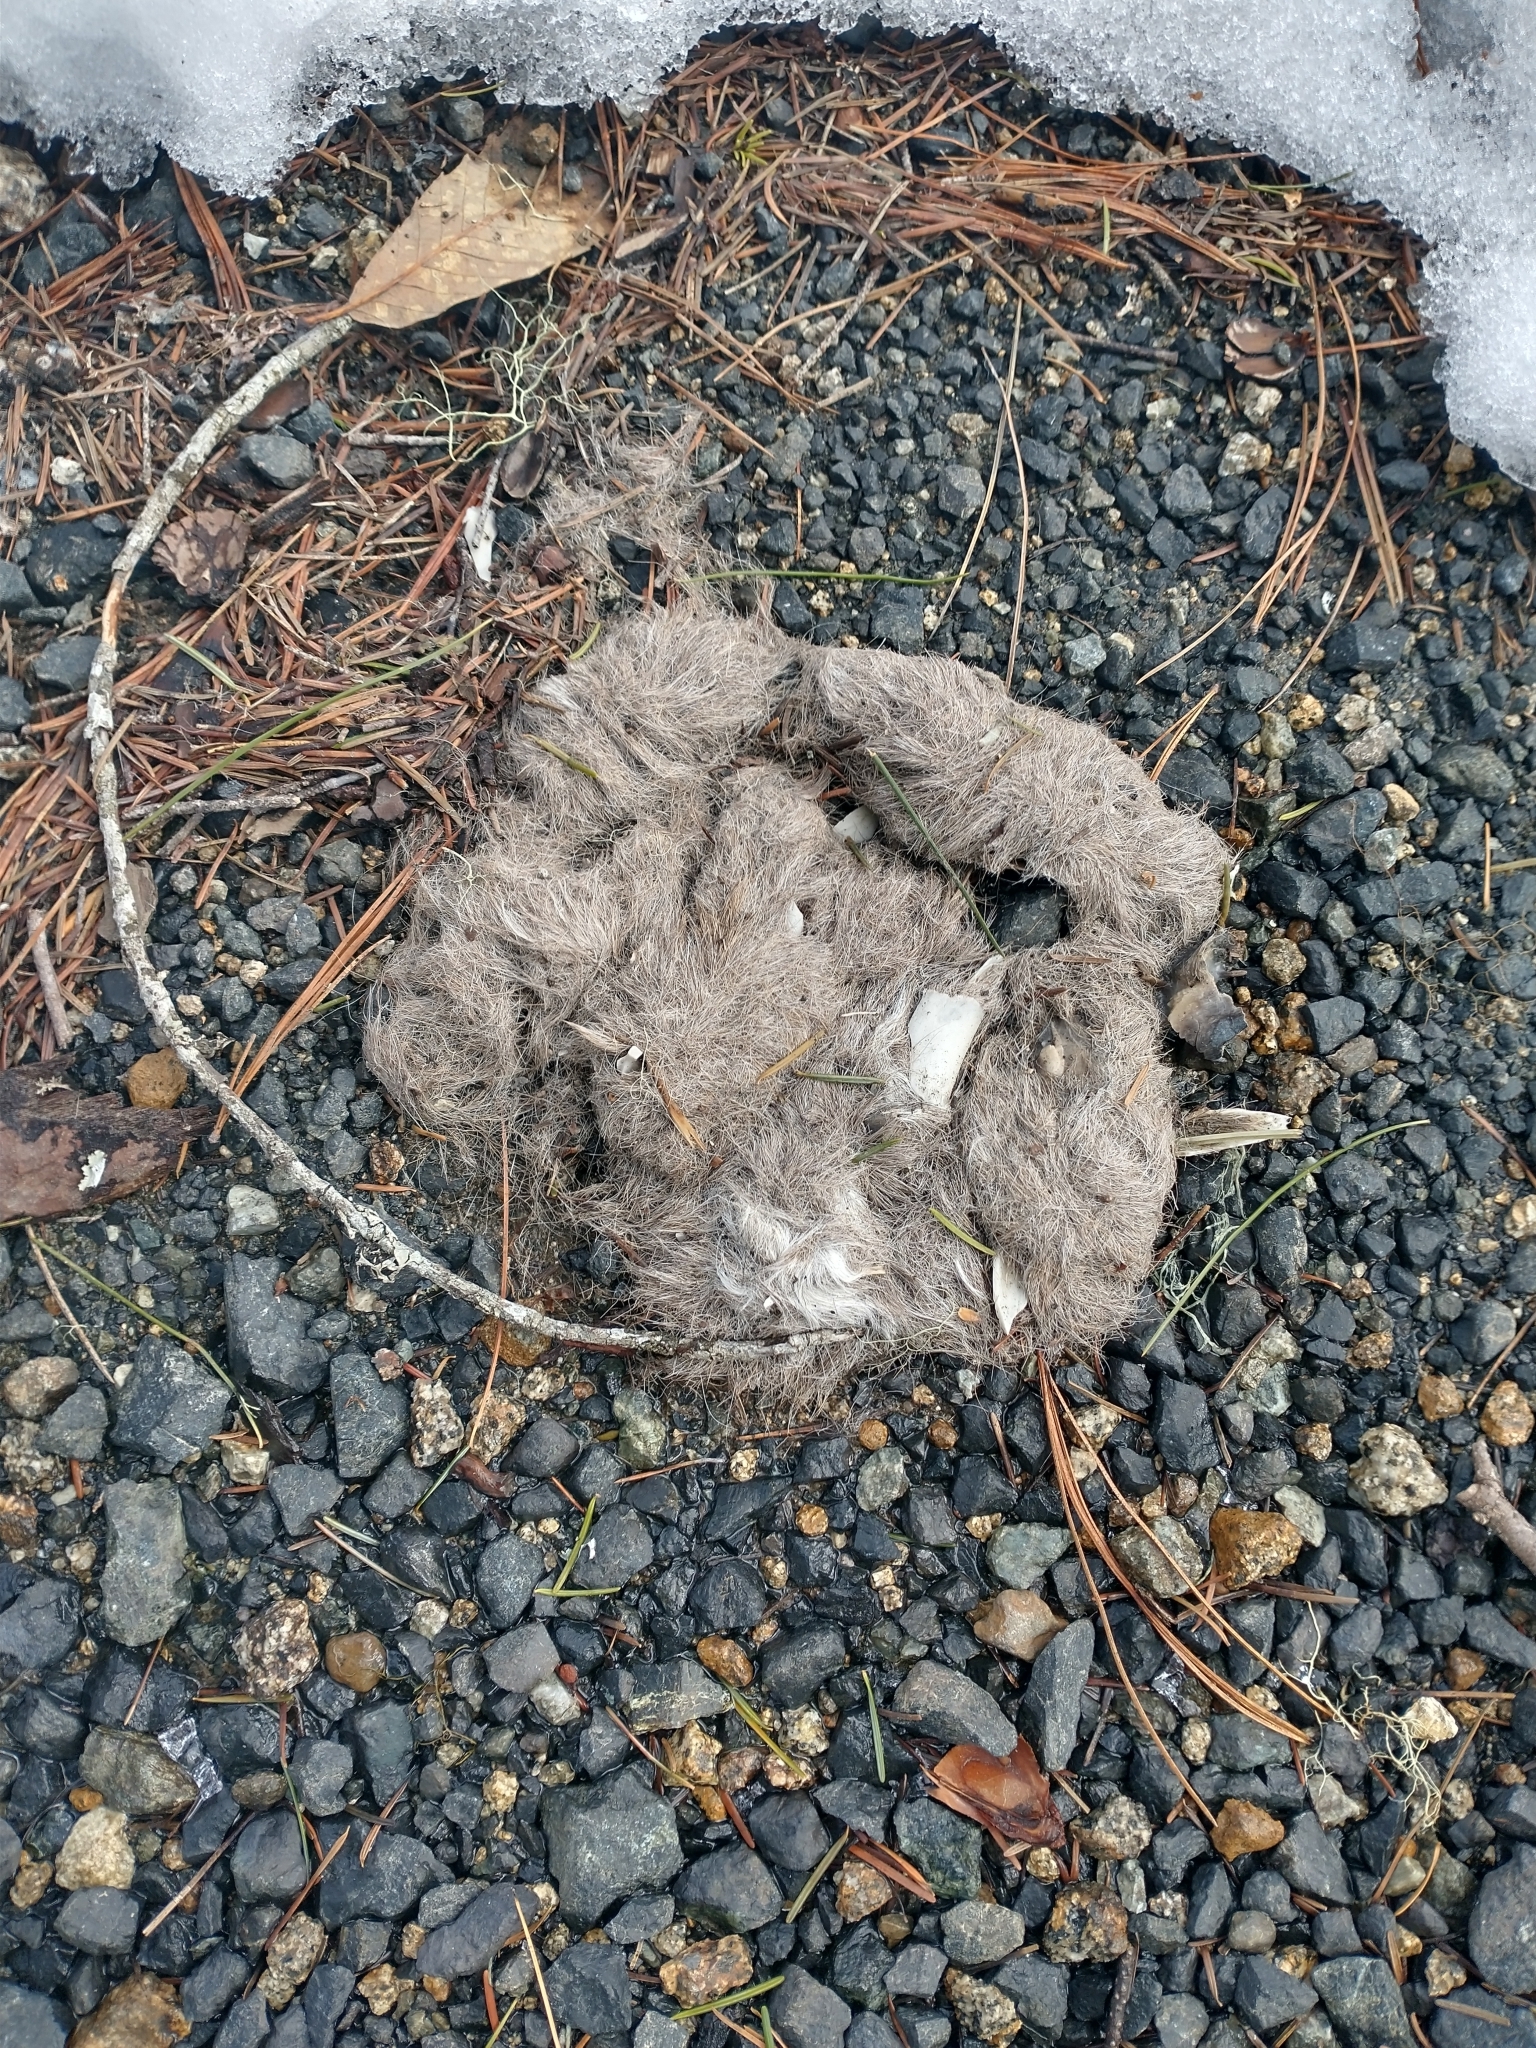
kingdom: Animalia
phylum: Chordata
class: Mammalia
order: Carnivora
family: Felidae
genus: Puma
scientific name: Puma concolor
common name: Puma
